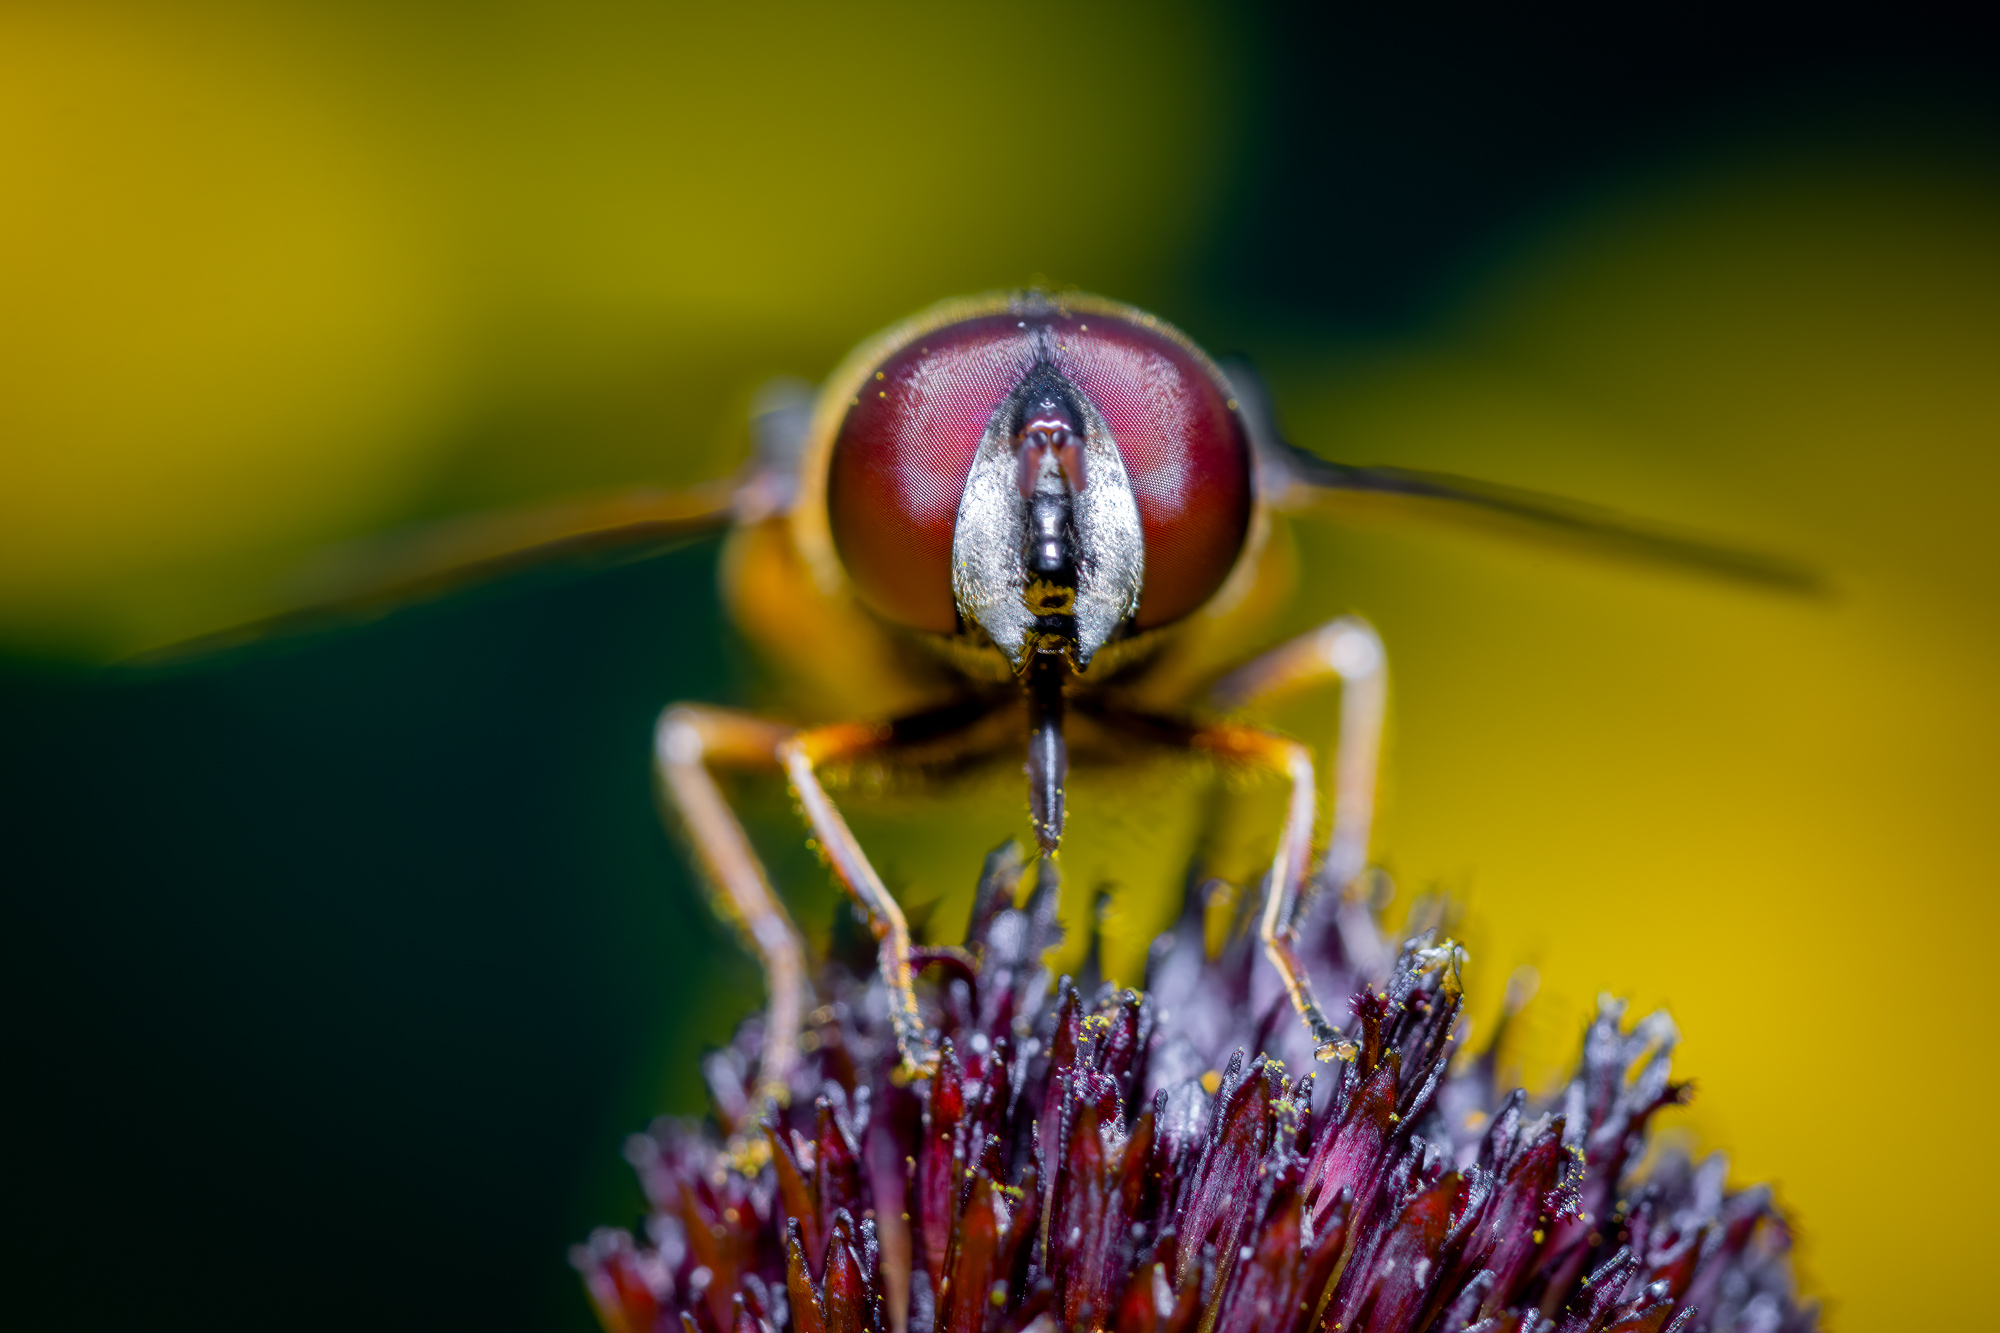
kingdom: Animalia
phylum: Arthropoda
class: Insecta
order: Diptera
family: Syrphidae
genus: Eristalis
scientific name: Eristalis transversa
